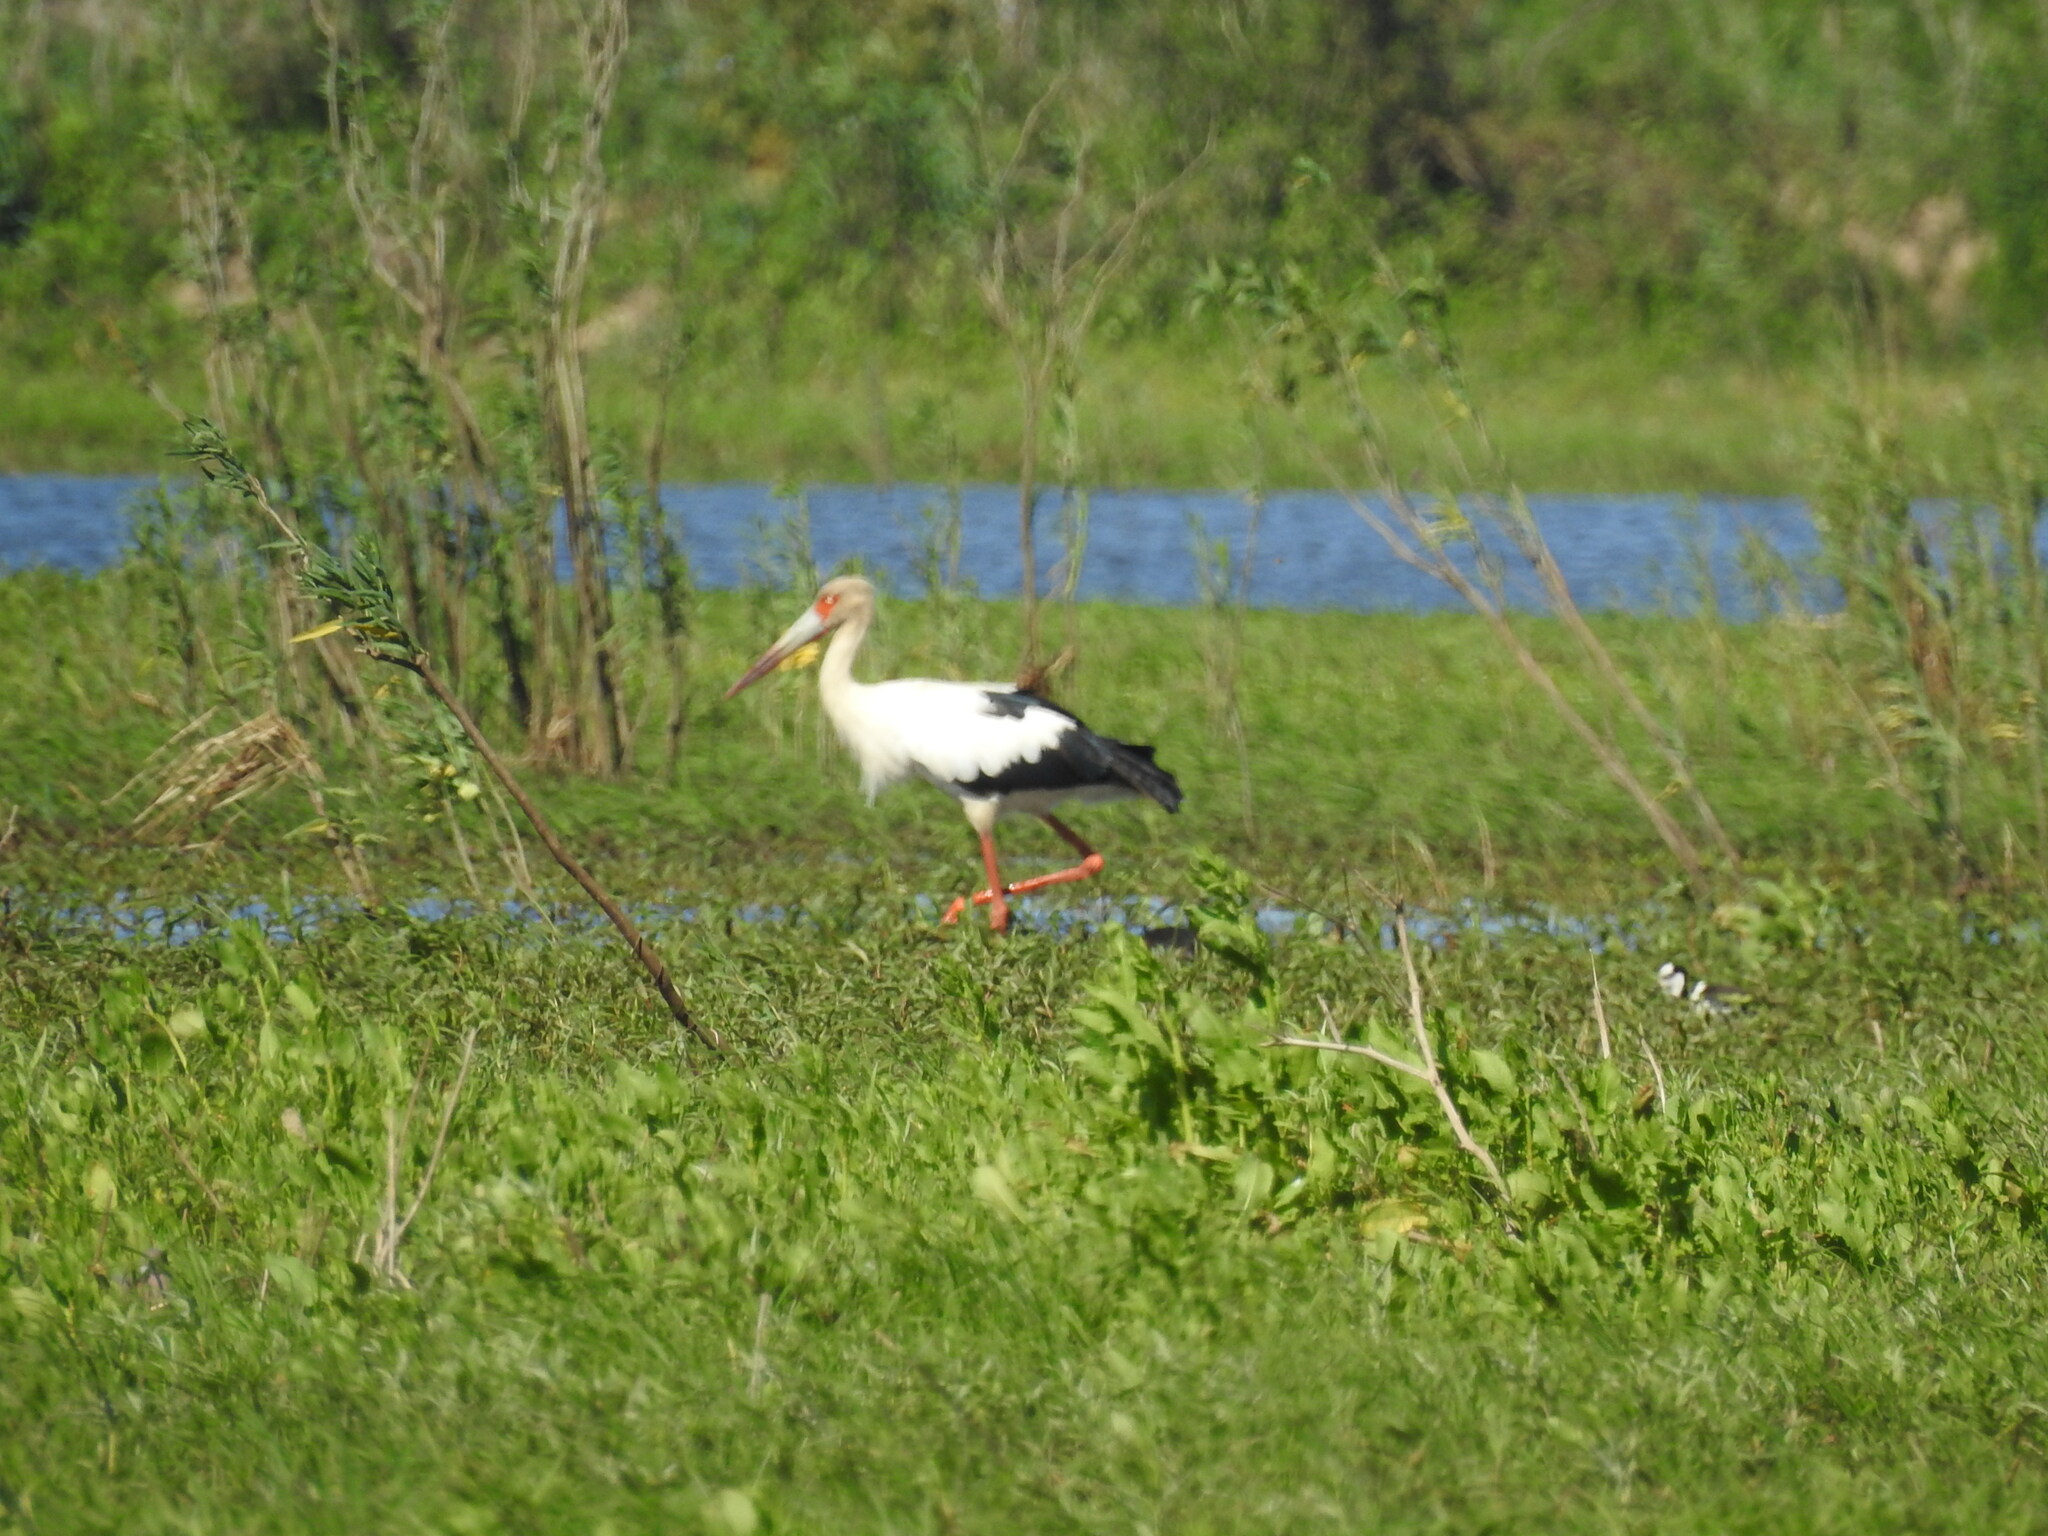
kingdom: Animalia
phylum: Chordata
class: Aves
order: Ciconiiformes
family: Ciconiidae
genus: Ciconia
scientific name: Ciconia maguari
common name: Maguari stork
